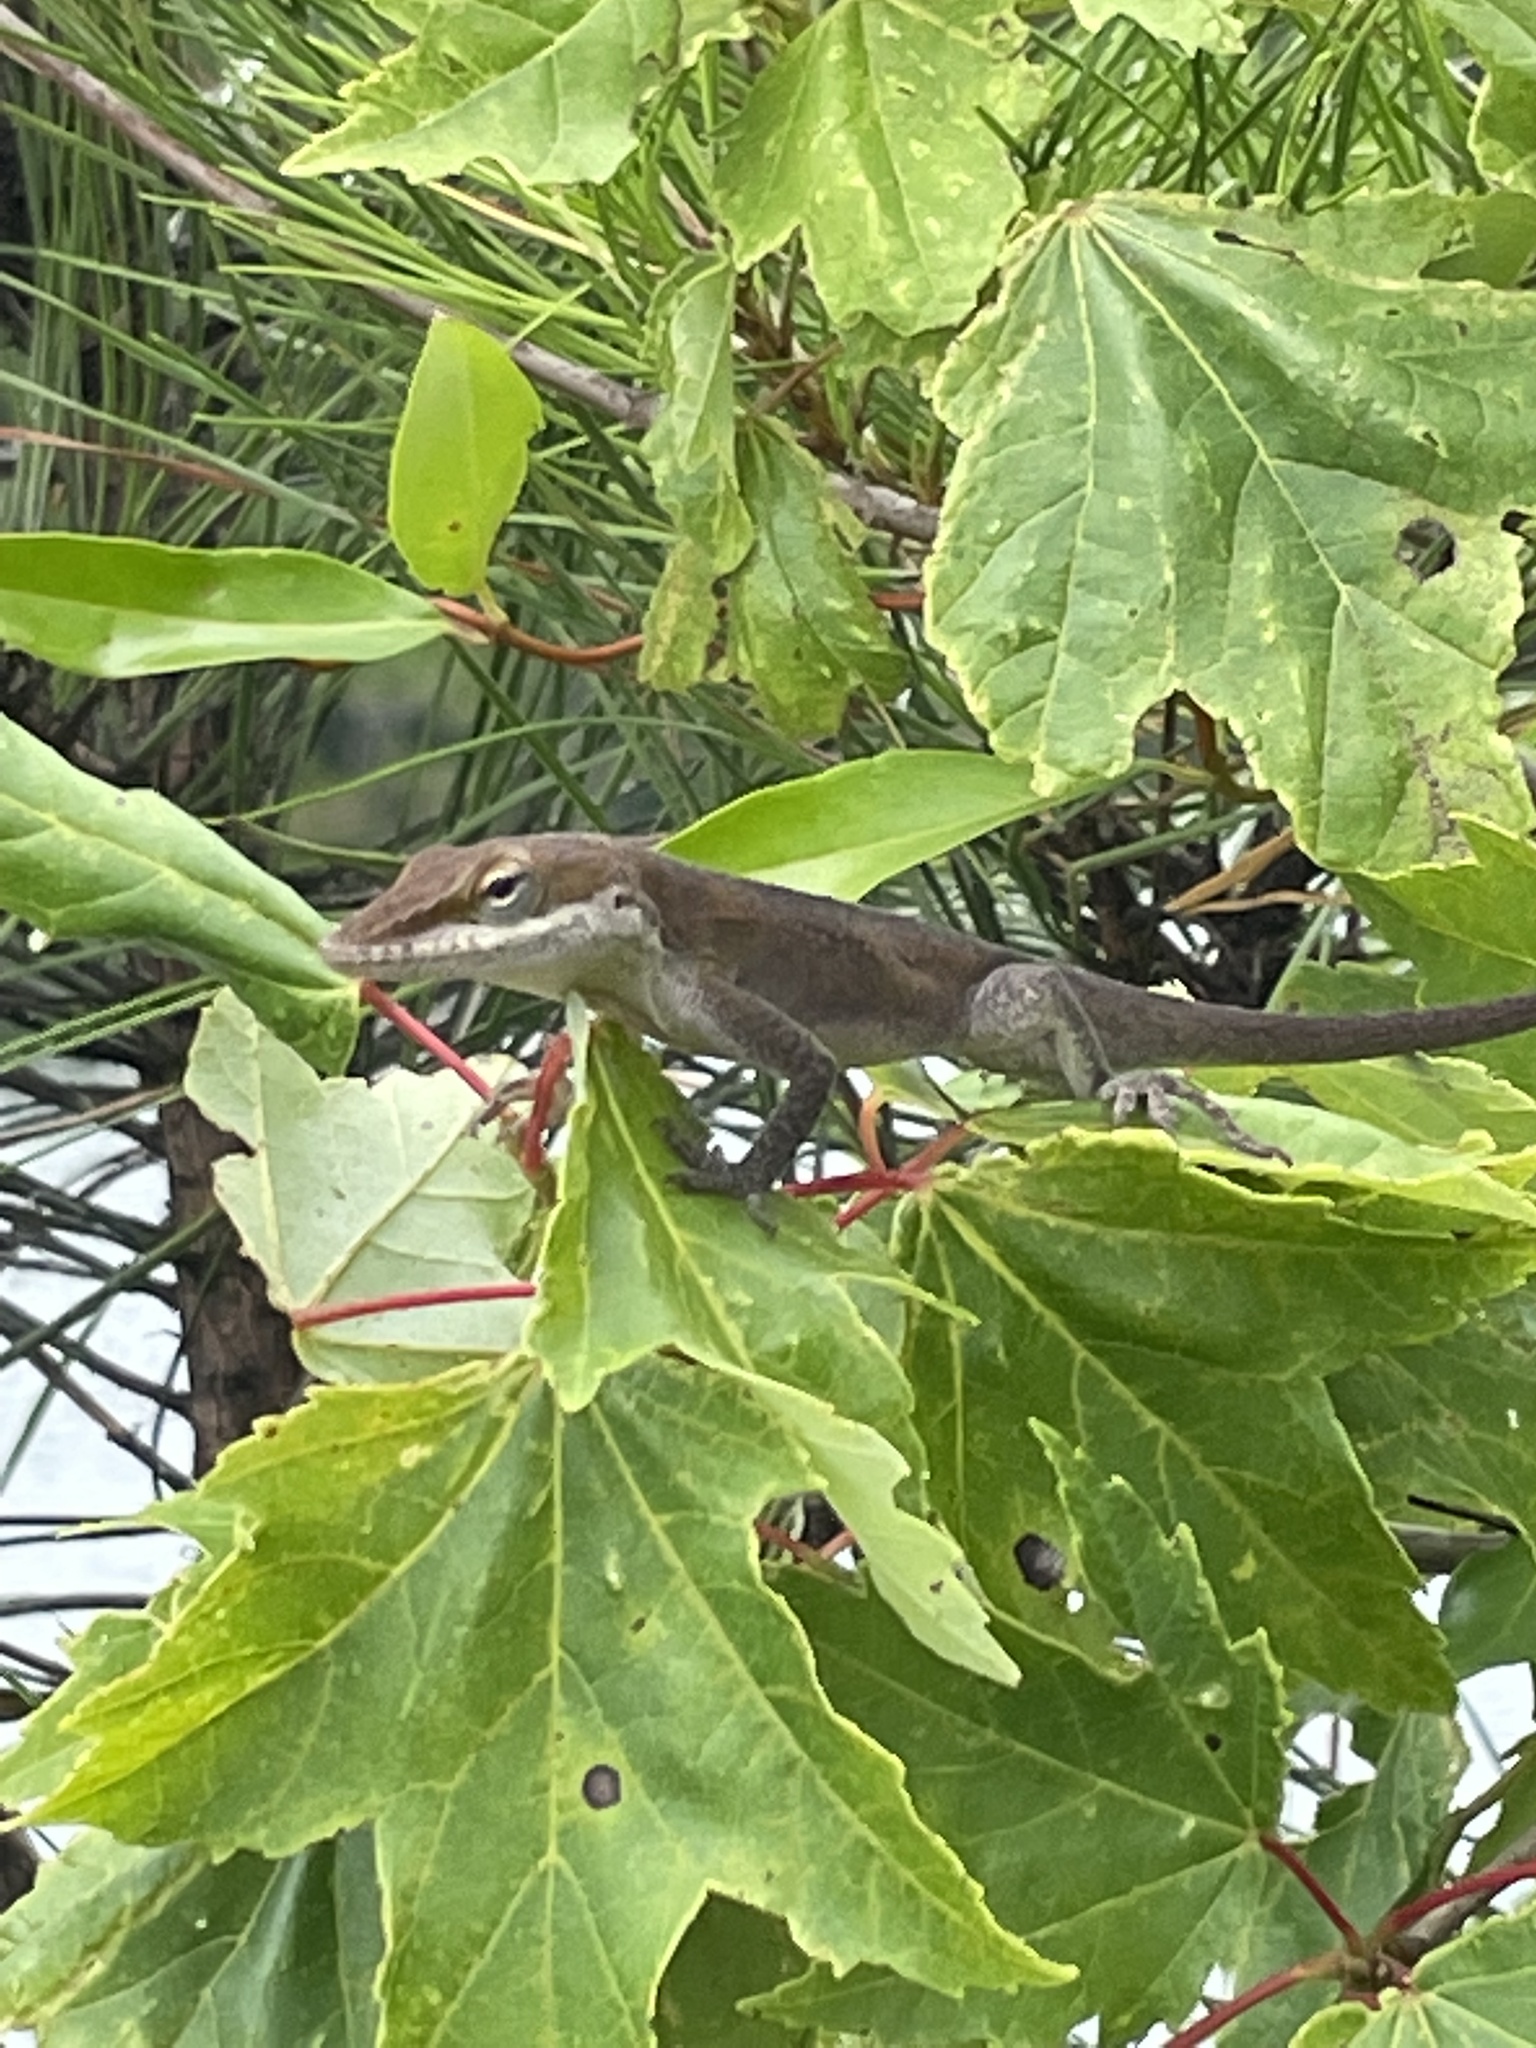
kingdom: Animalia
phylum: Chordata
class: Squamata
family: Dactyloidae
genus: Anolis
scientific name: Anolis carolinensis
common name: Green anole
